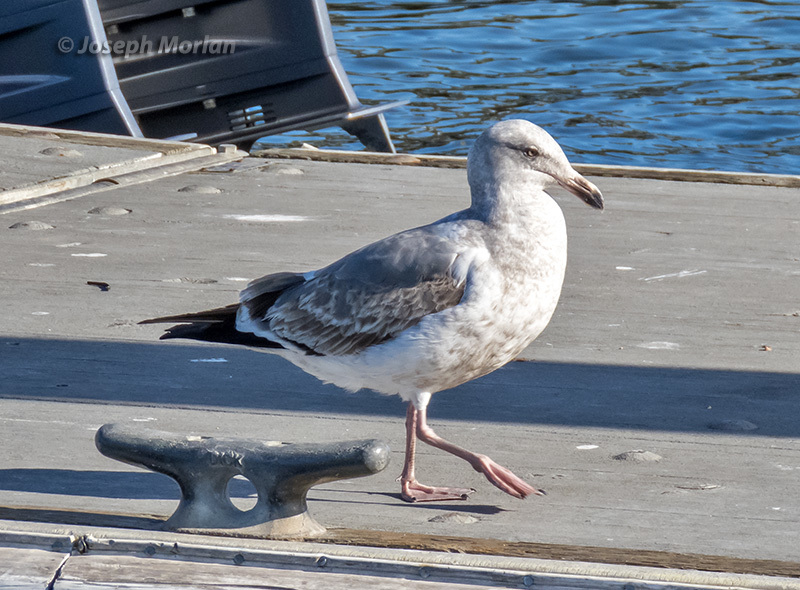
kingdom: Animalia
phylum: Chordata
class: Aves
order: Charadriiformes
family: Laridae
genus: Larus
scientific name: Larus occidentalis
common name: Western gull
